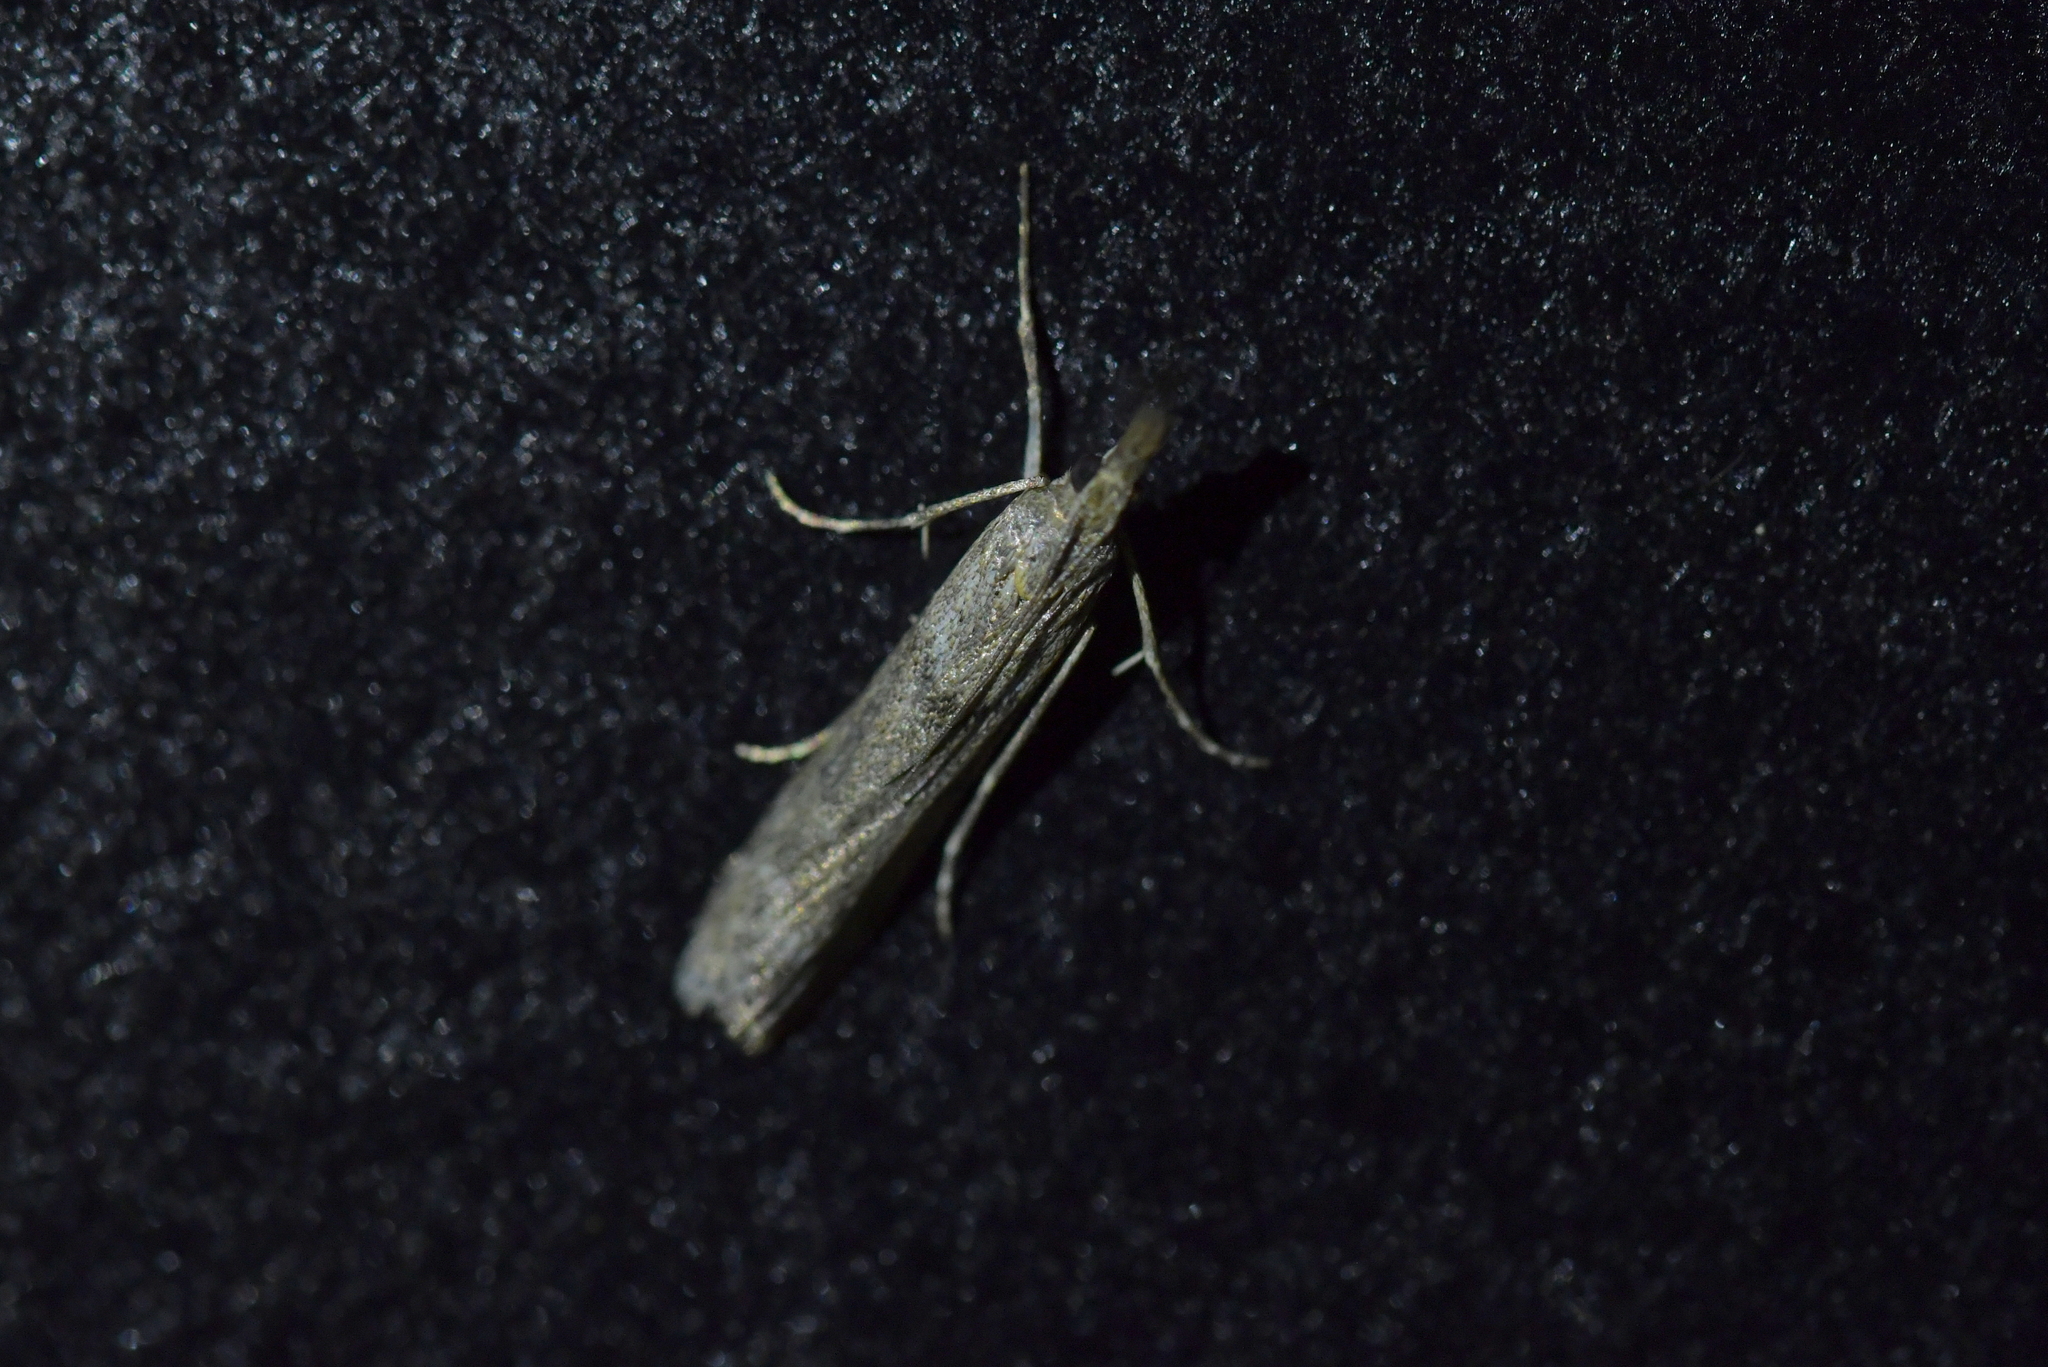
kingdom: Animalia
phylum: Arthropoda
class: Insecta
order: Lepidoptera
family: Crambidae
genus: Eudonia
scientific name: Eudonia leptalea
